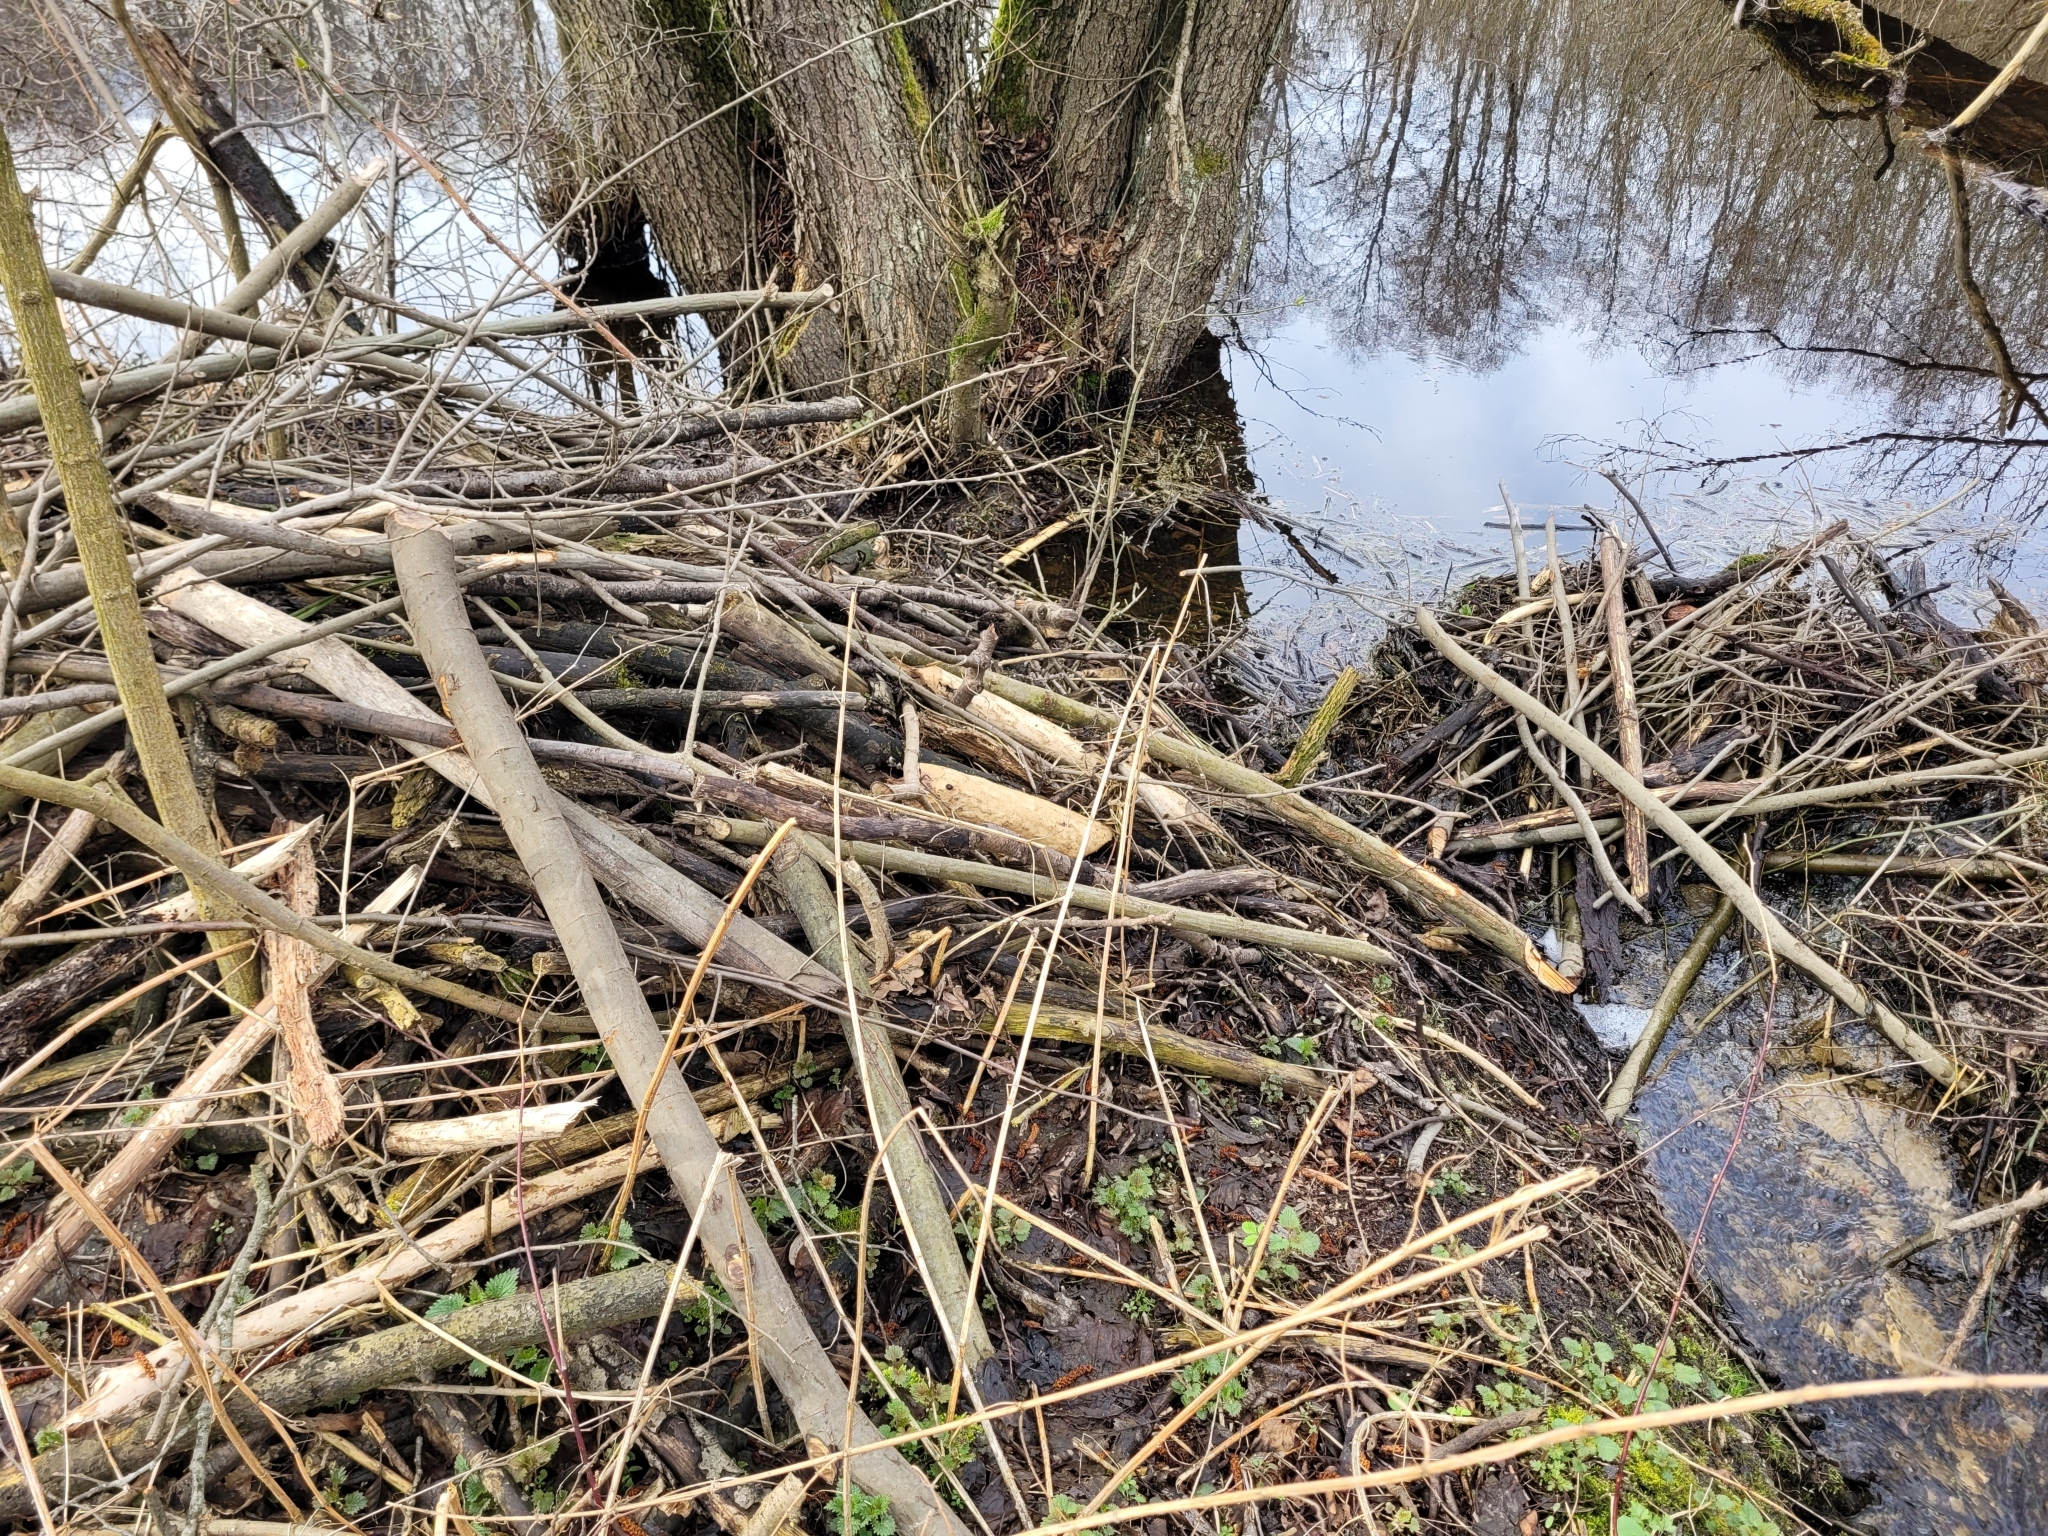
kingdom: Animalia
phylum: Chordata
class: Mammalia
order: Rodentia
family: Castoridae
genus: Castor
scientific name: Castor fiber
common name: Eurasian beaver
